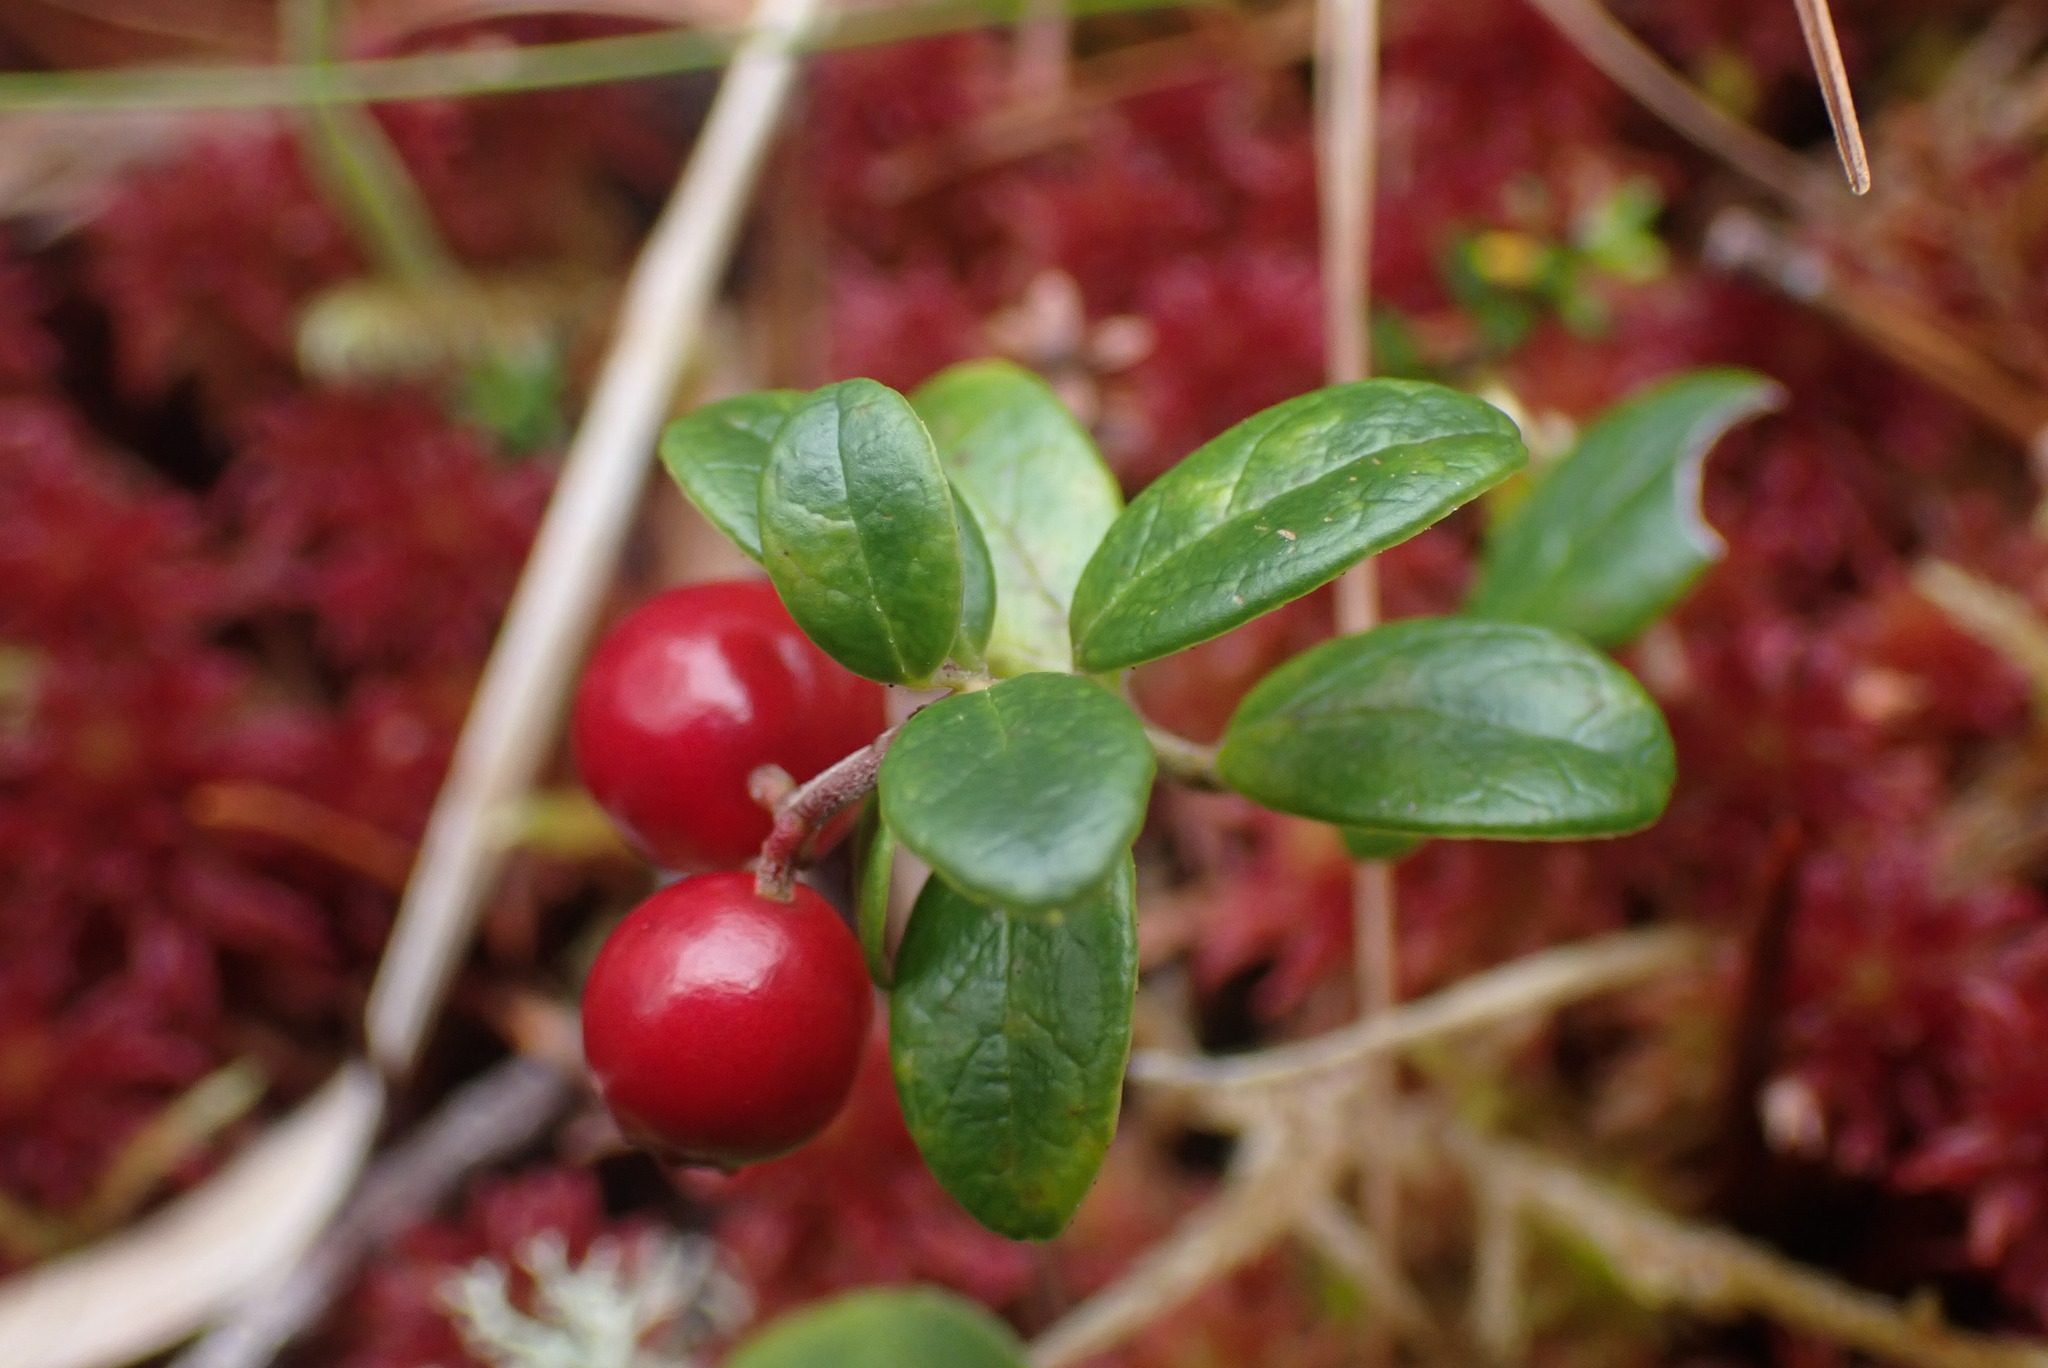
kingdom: Plantae
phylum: Tracheophyta
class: Magnoliopsida
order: Ericales
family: Ericaceae
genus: Vaccinium
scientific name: Vaccinium vitis-idaea
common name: Cowberry
